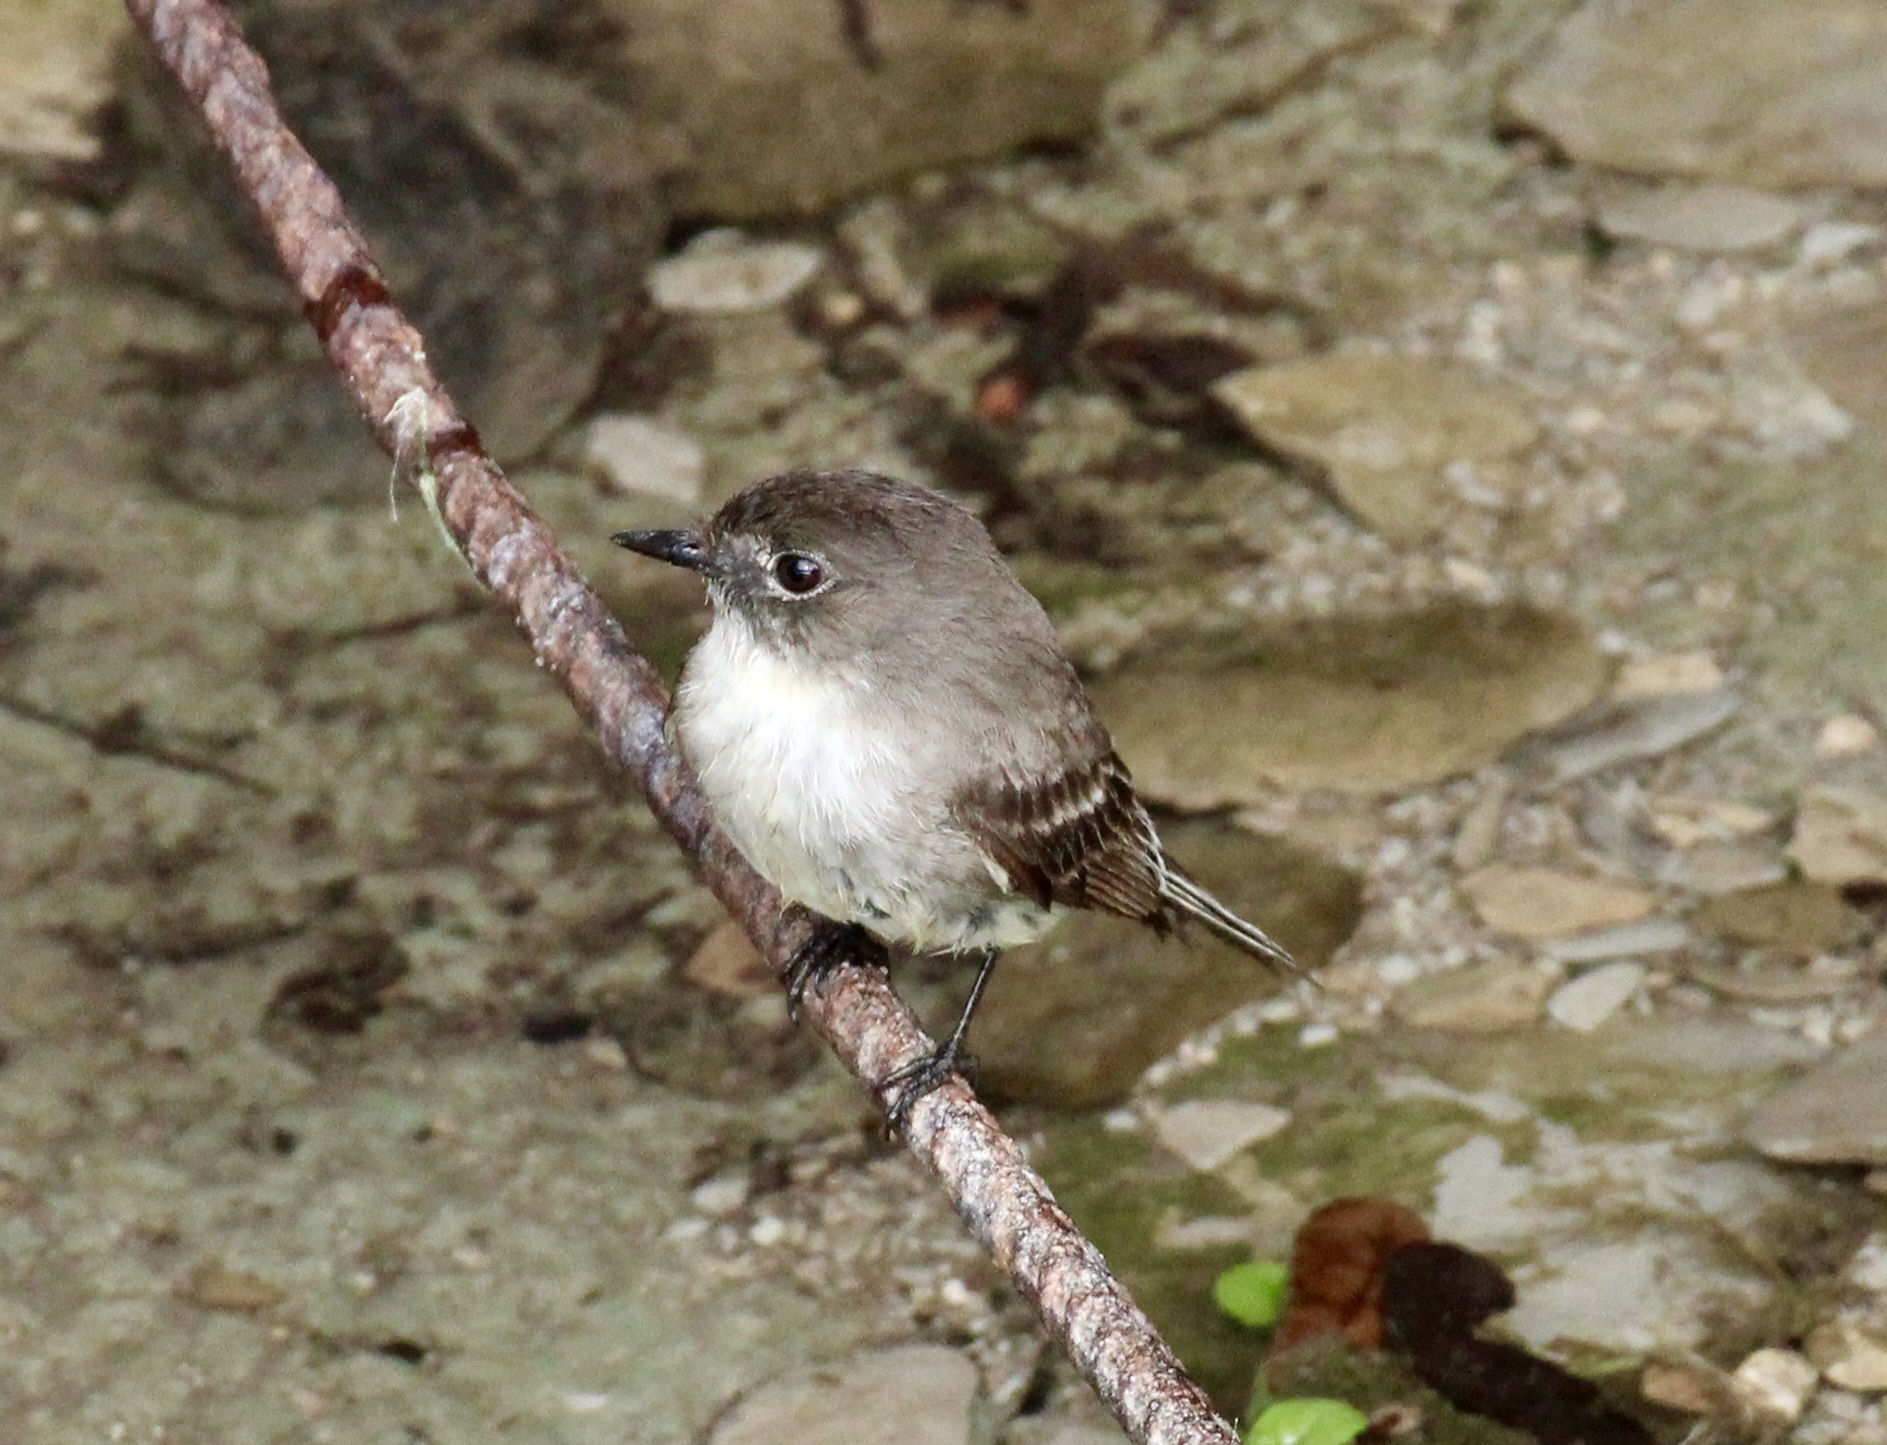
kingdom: Animalia
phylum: Chordata
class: Aves
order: Passeriformes
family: Tyrannidae
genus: Sayornis
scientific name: Sayornis phoebe
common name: Eastern phoebe
